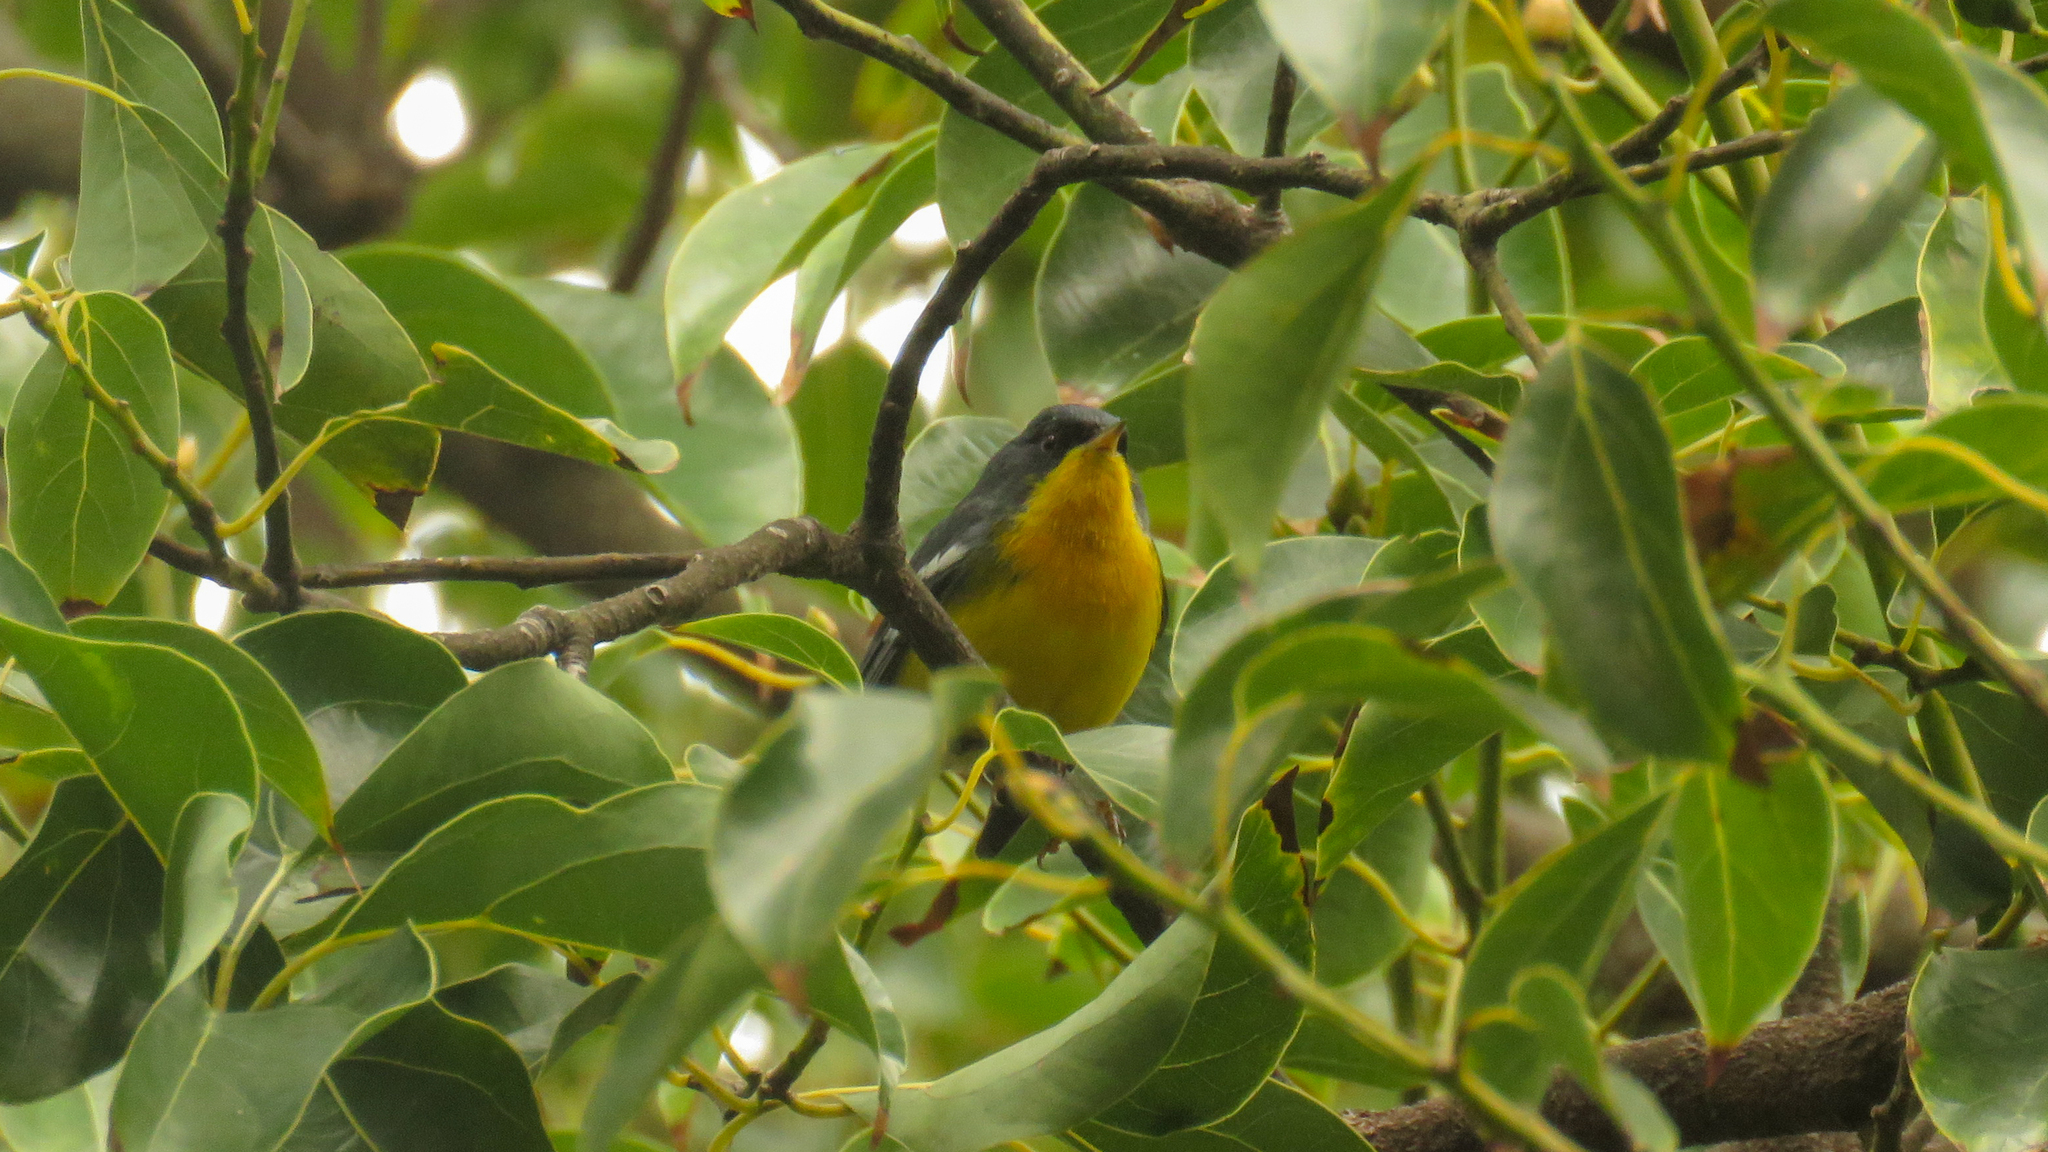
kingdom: Animalia
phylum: Chordata
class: Aves
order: Passeriformes
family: Parulidae
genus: Setophaga
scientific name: Setophaga pitiayumi
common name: Tropical parula
